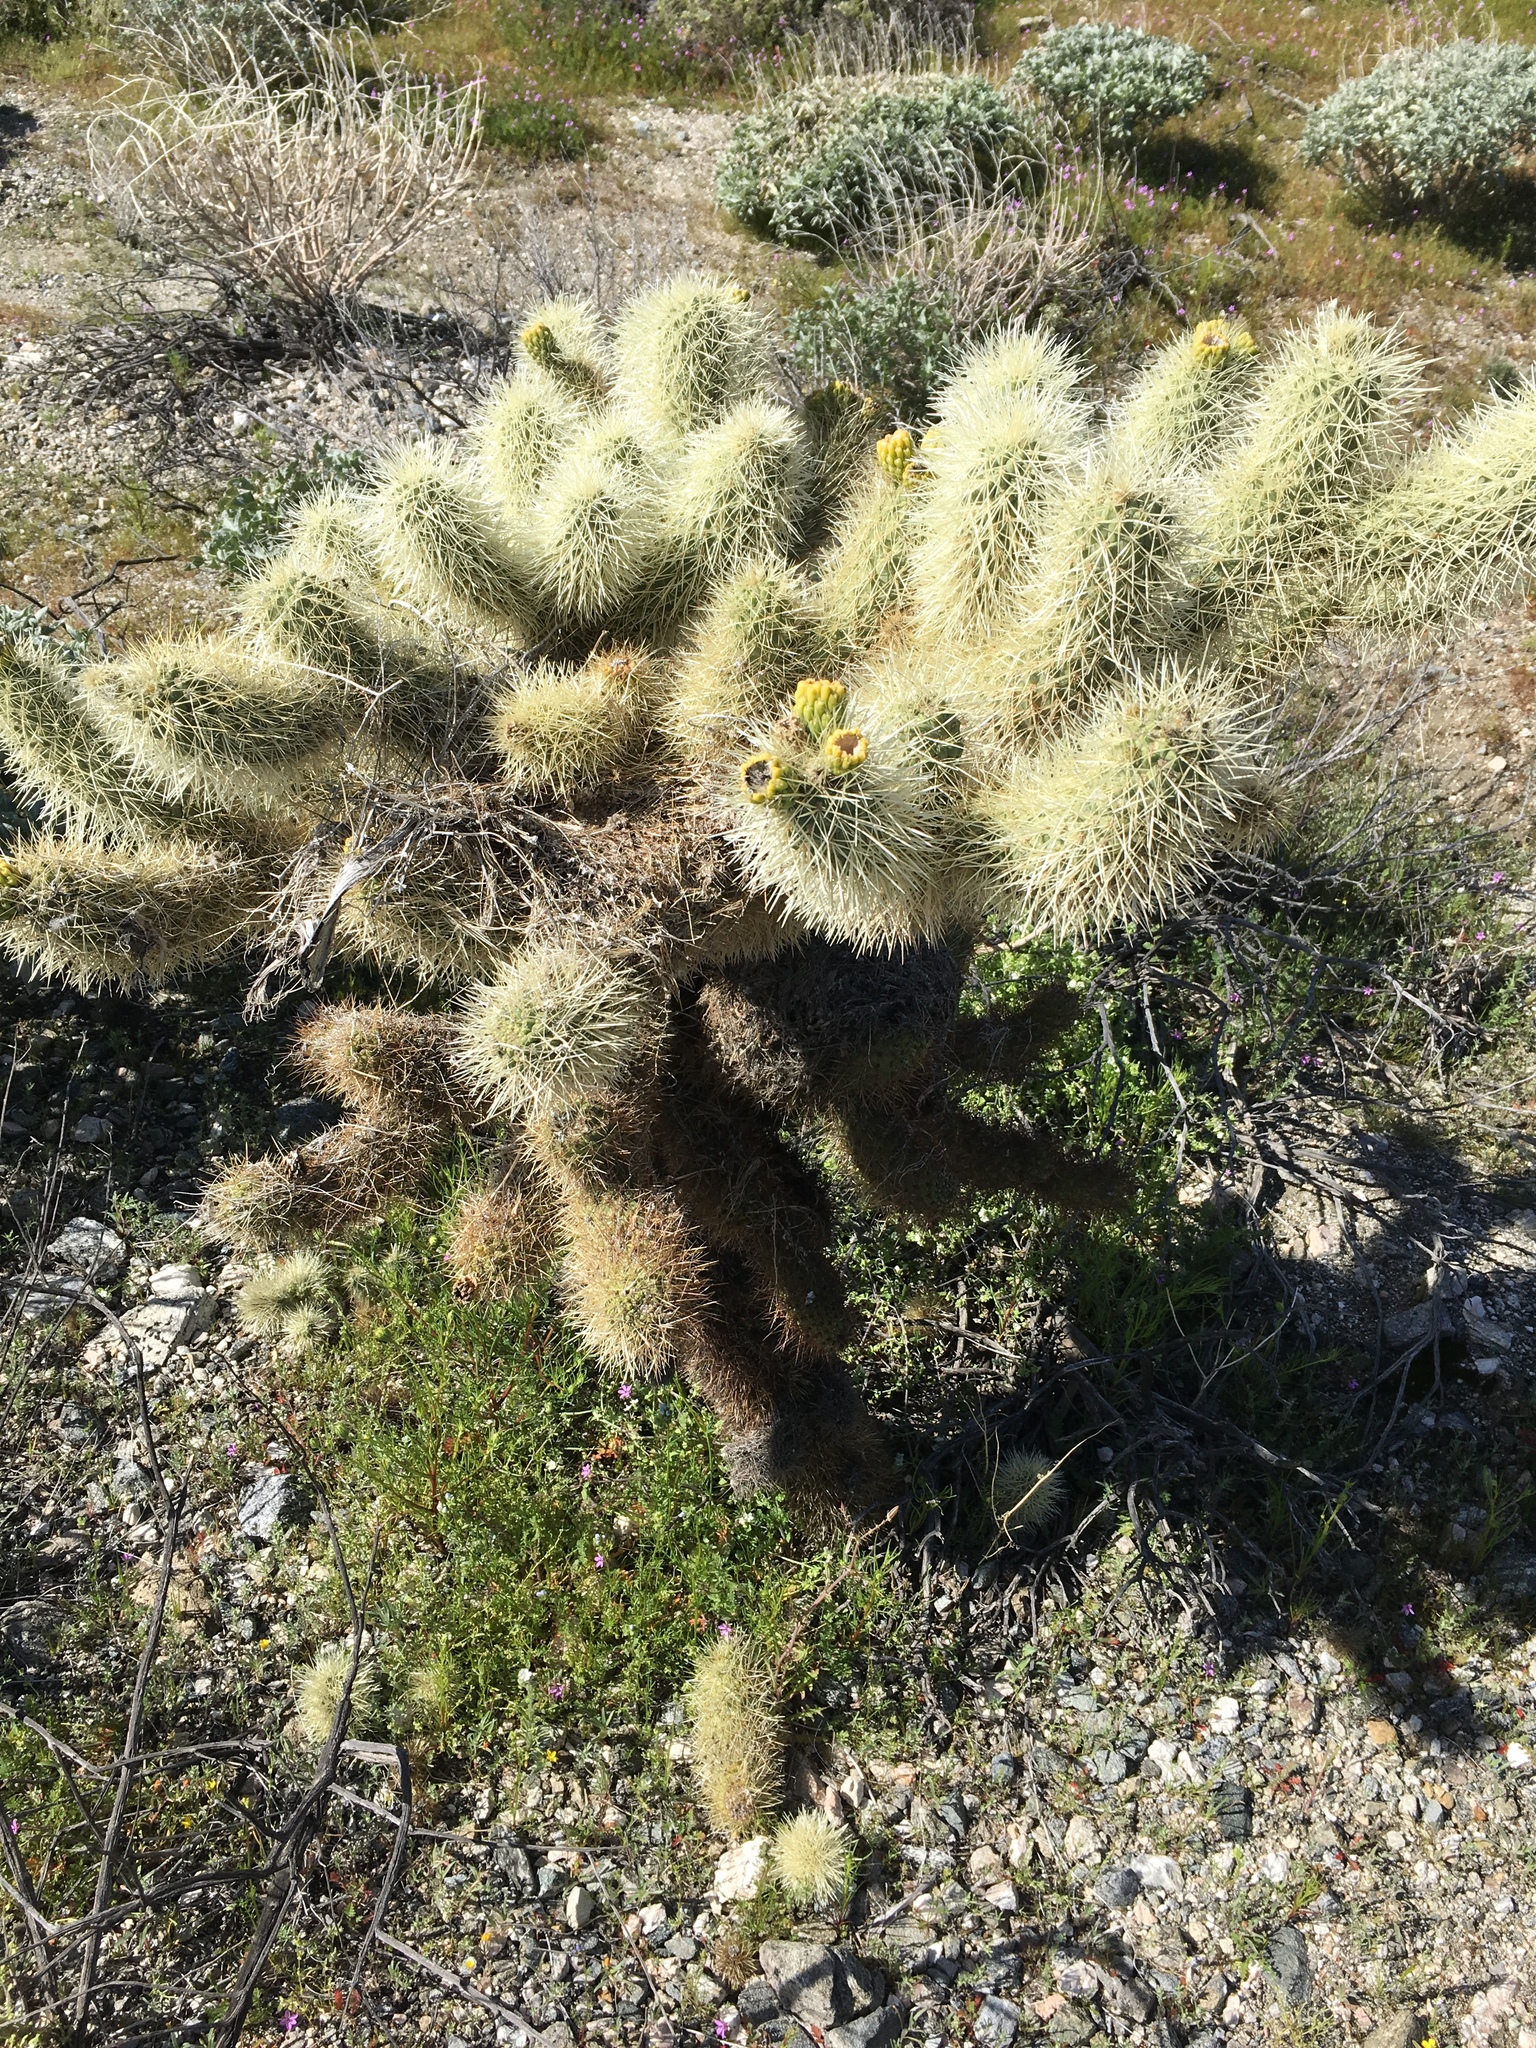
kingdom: Plantae
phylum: Tracheophyta
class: Magnoliopsida
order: Caryophyllales
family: Cactaceae
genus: Cylindropuntia
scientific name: Cylindropuntia fosbergii
